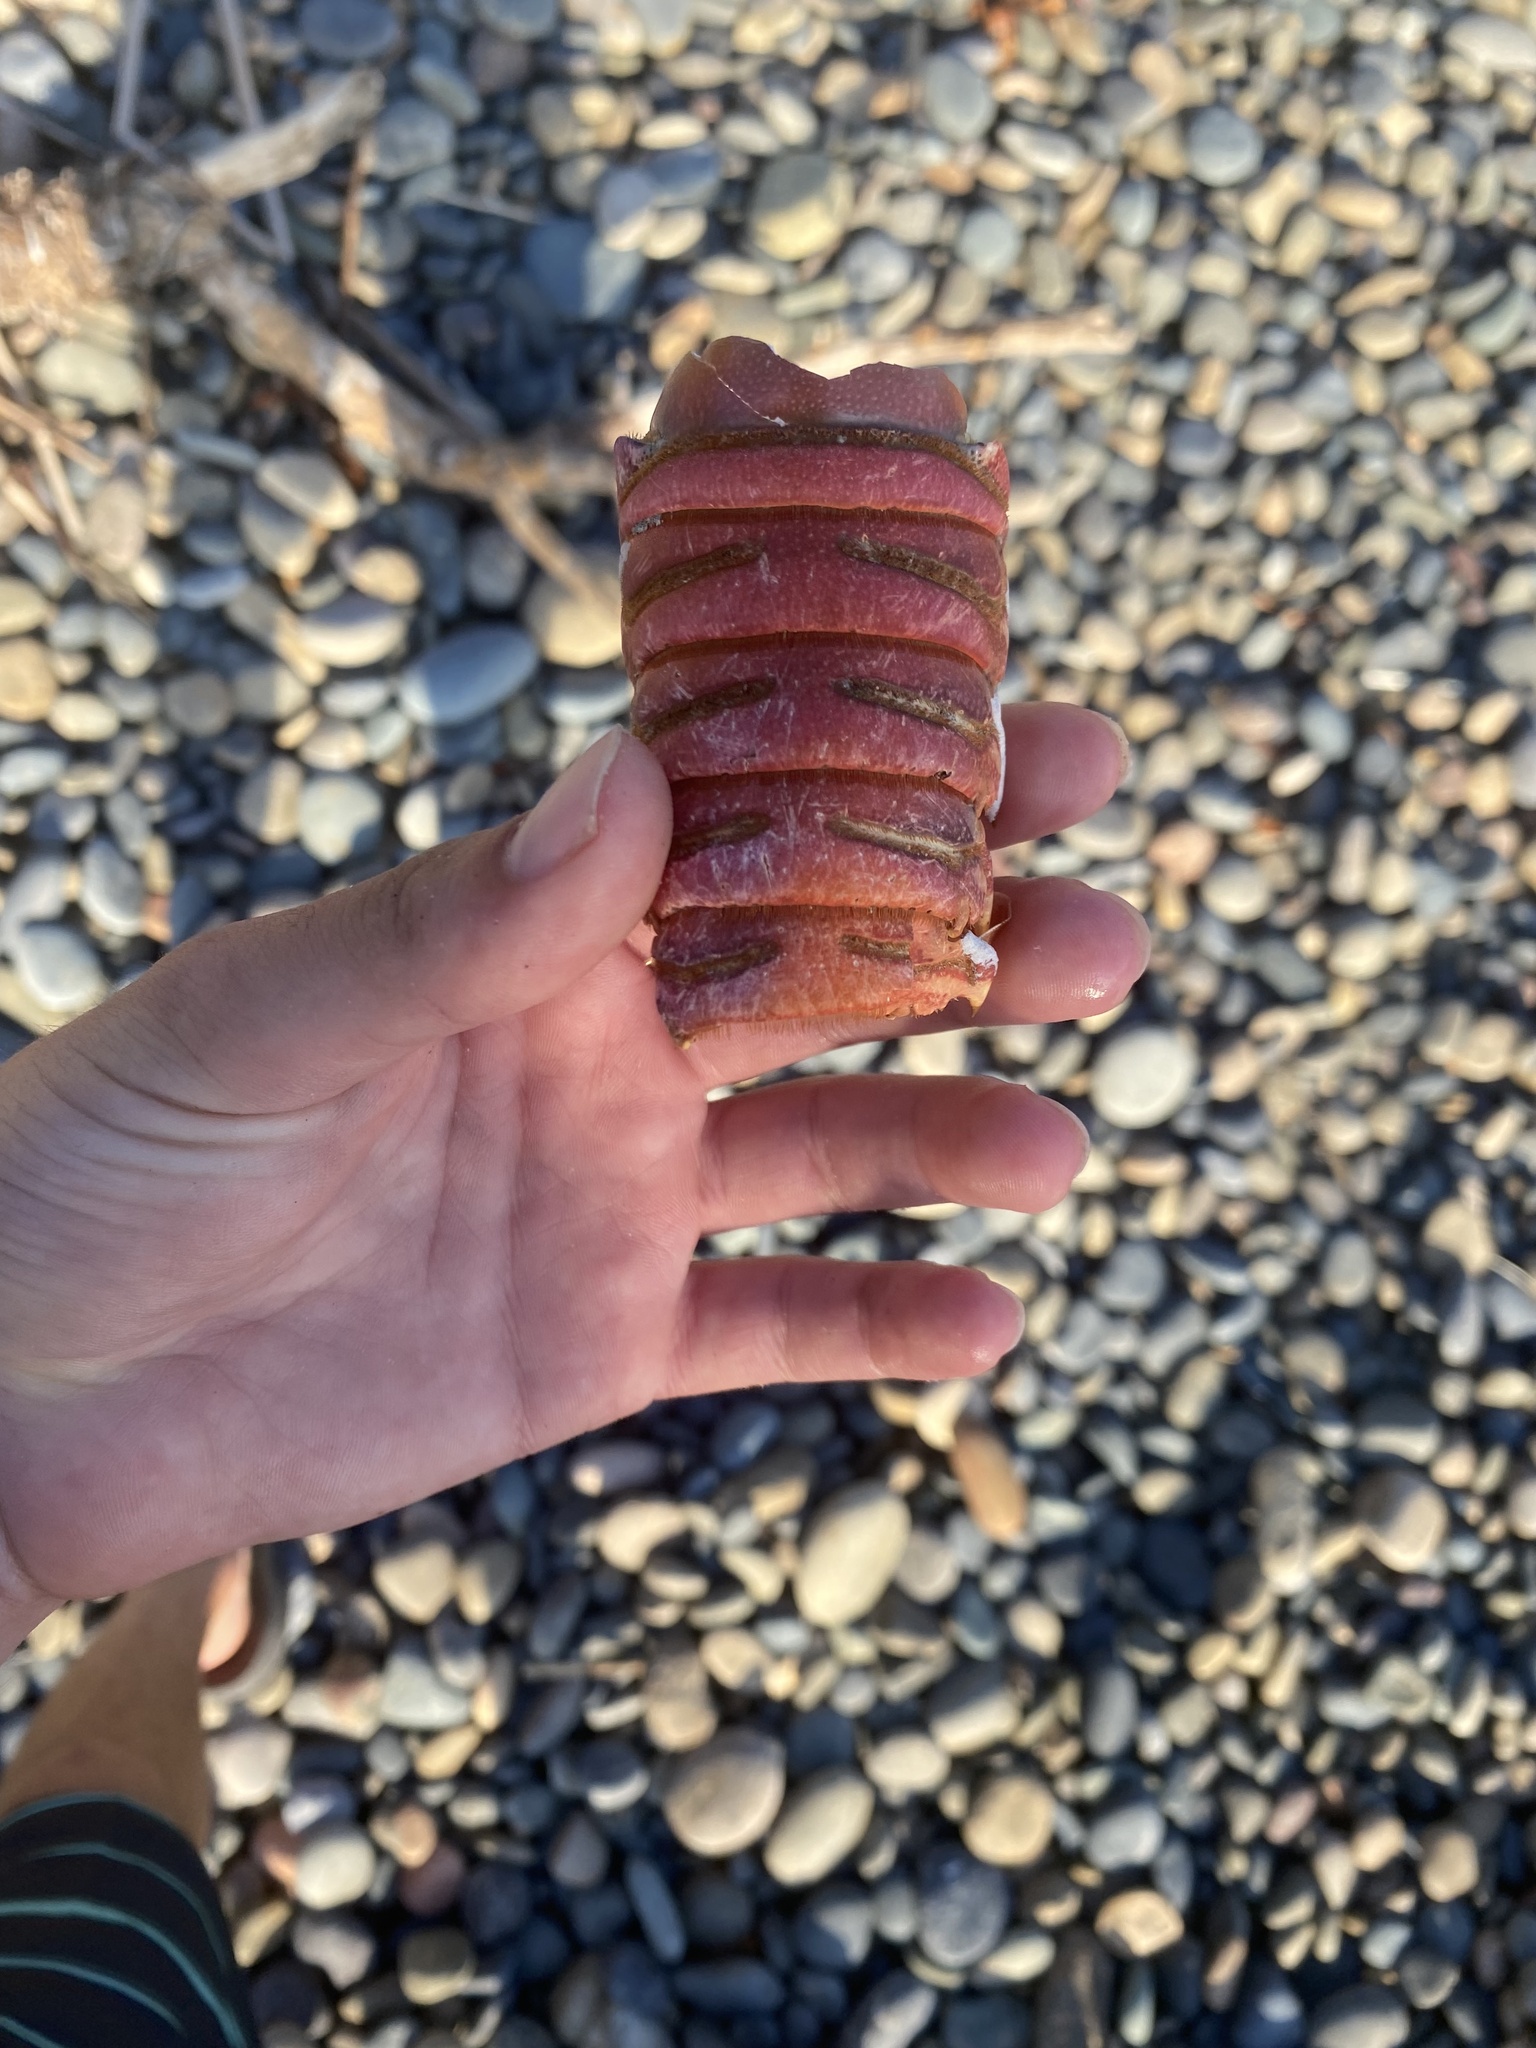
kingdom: Animalia
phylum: Arthropoda
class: Malacostraca
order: Decapoda
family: Palinuridae
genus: Panulirus
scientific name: Panulirus interruptus
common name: California spiny lobster
